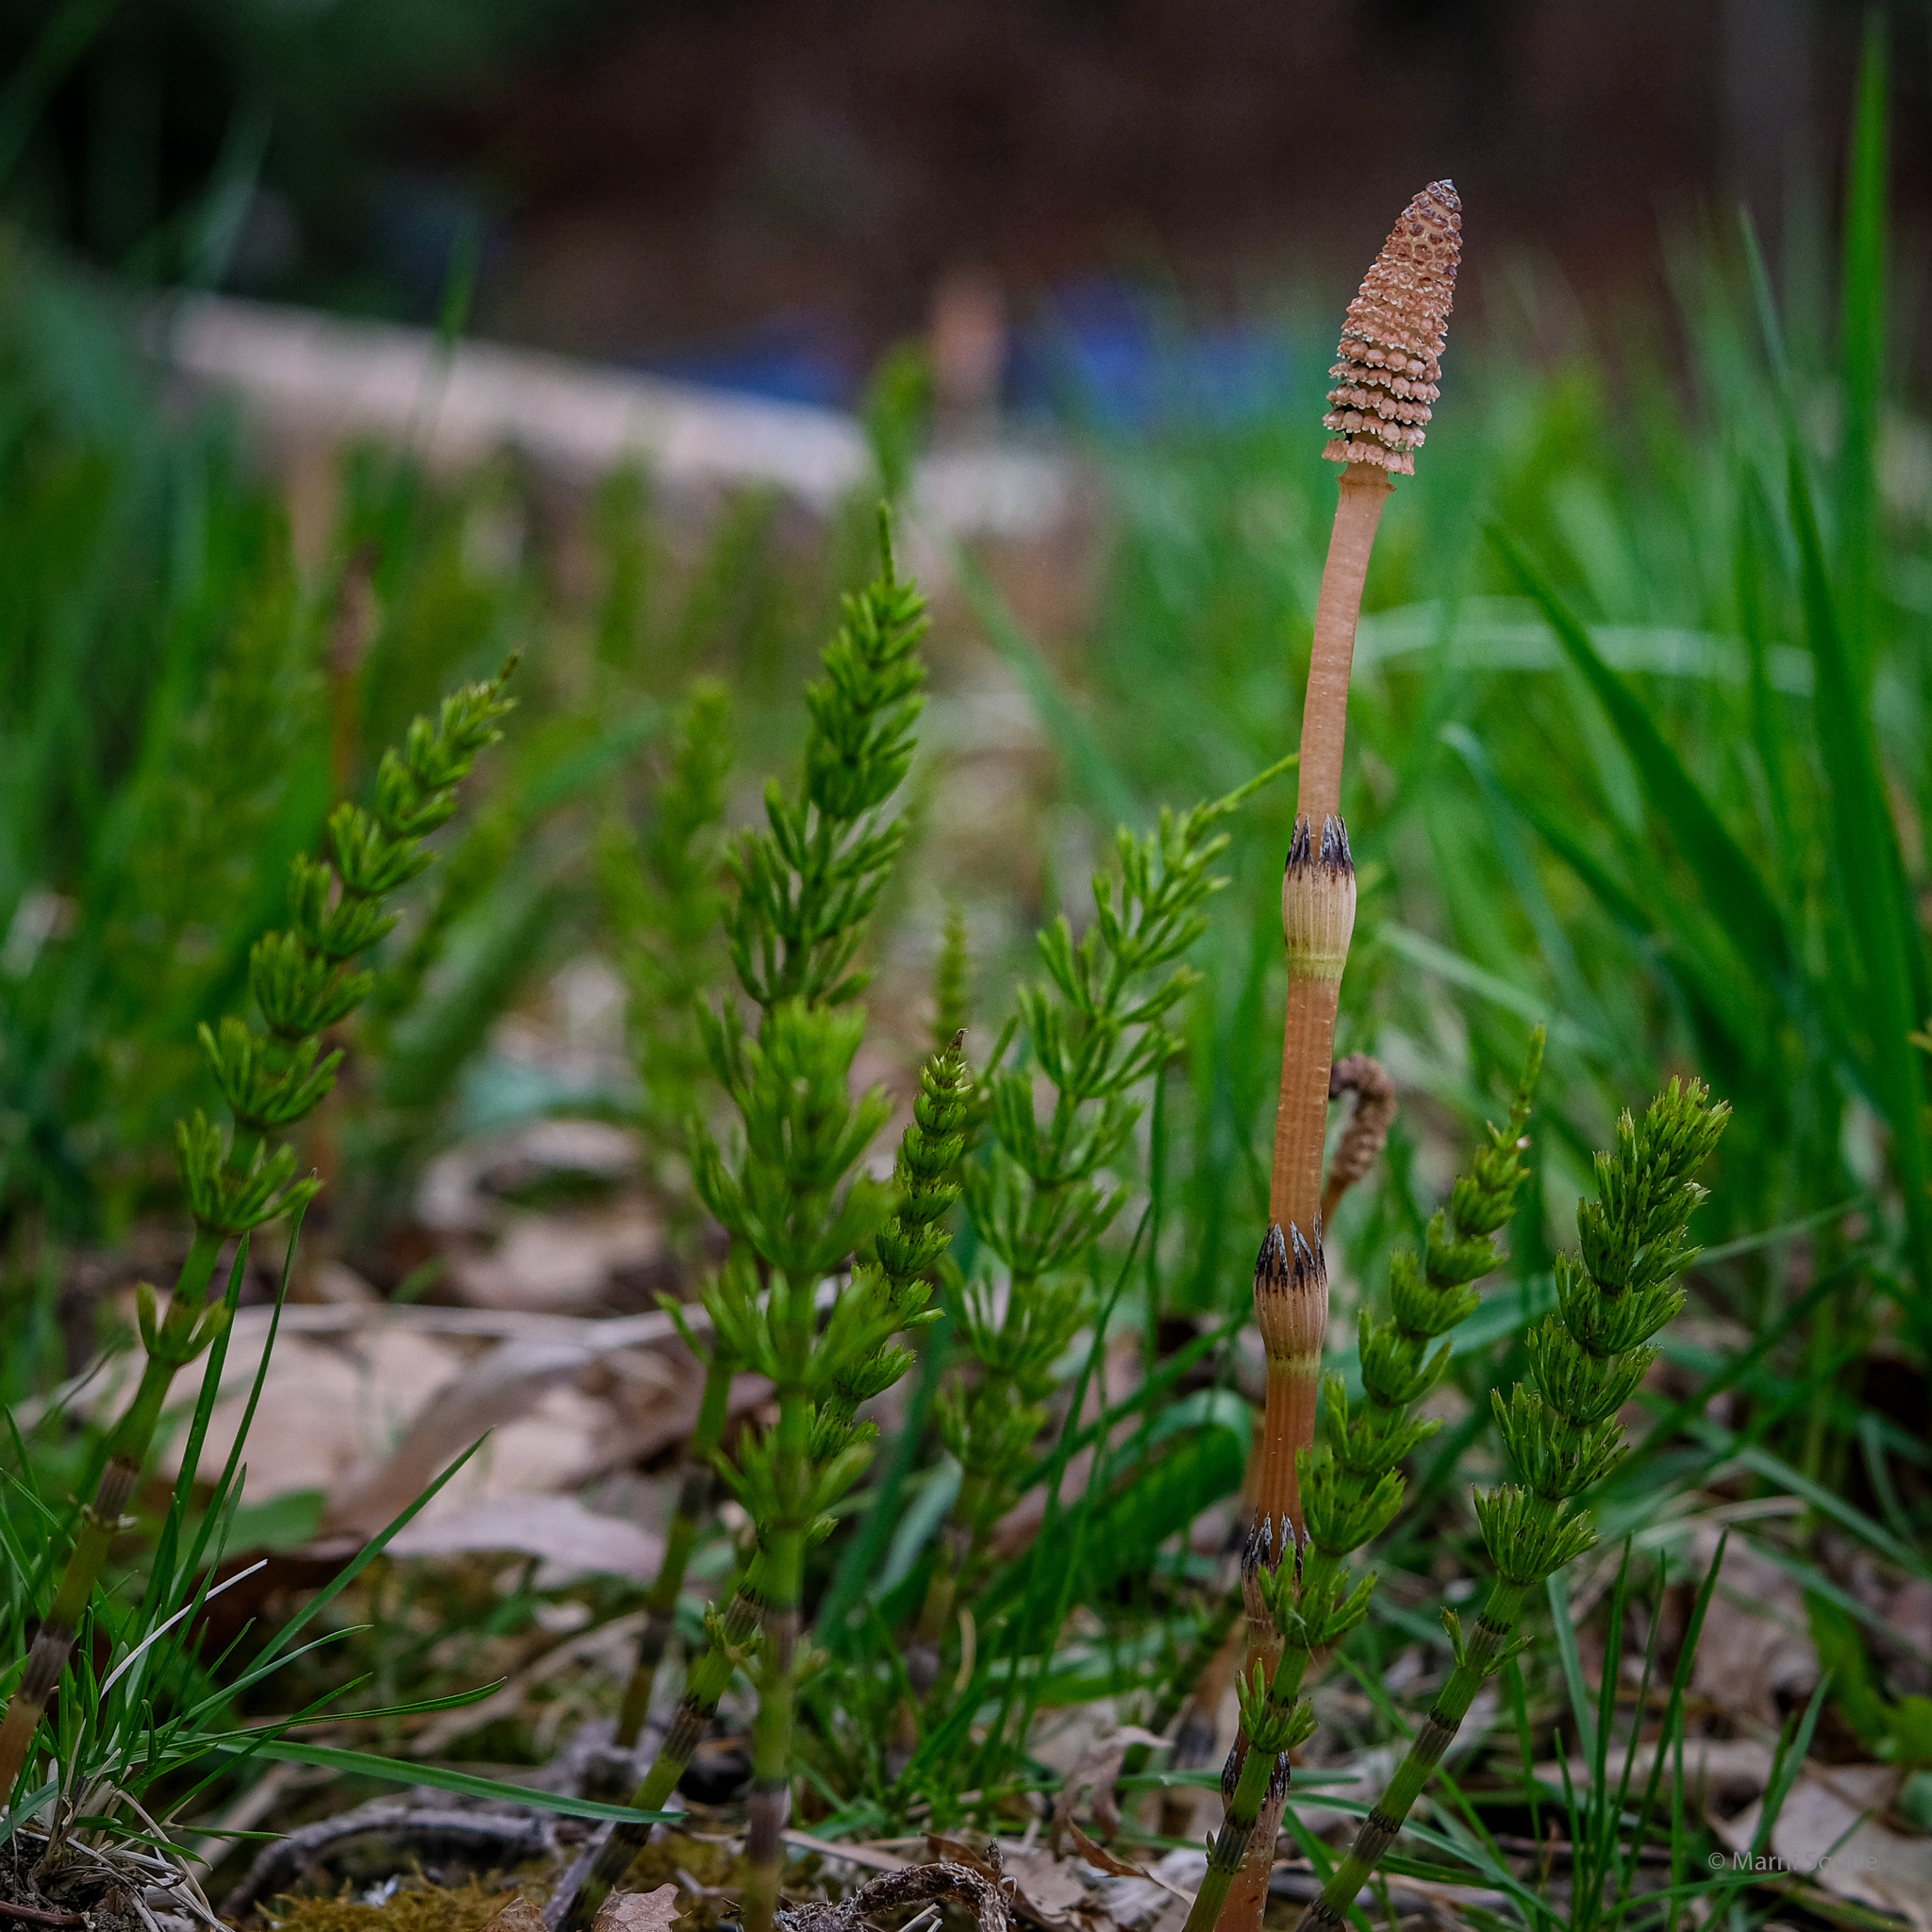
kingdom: Plantae
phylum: Tracheophyta
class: Polypodiopsida
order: Equisetales
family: Equisetaceae
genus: Equisetum
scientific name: Equisetum arvense
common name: Field horsetail
